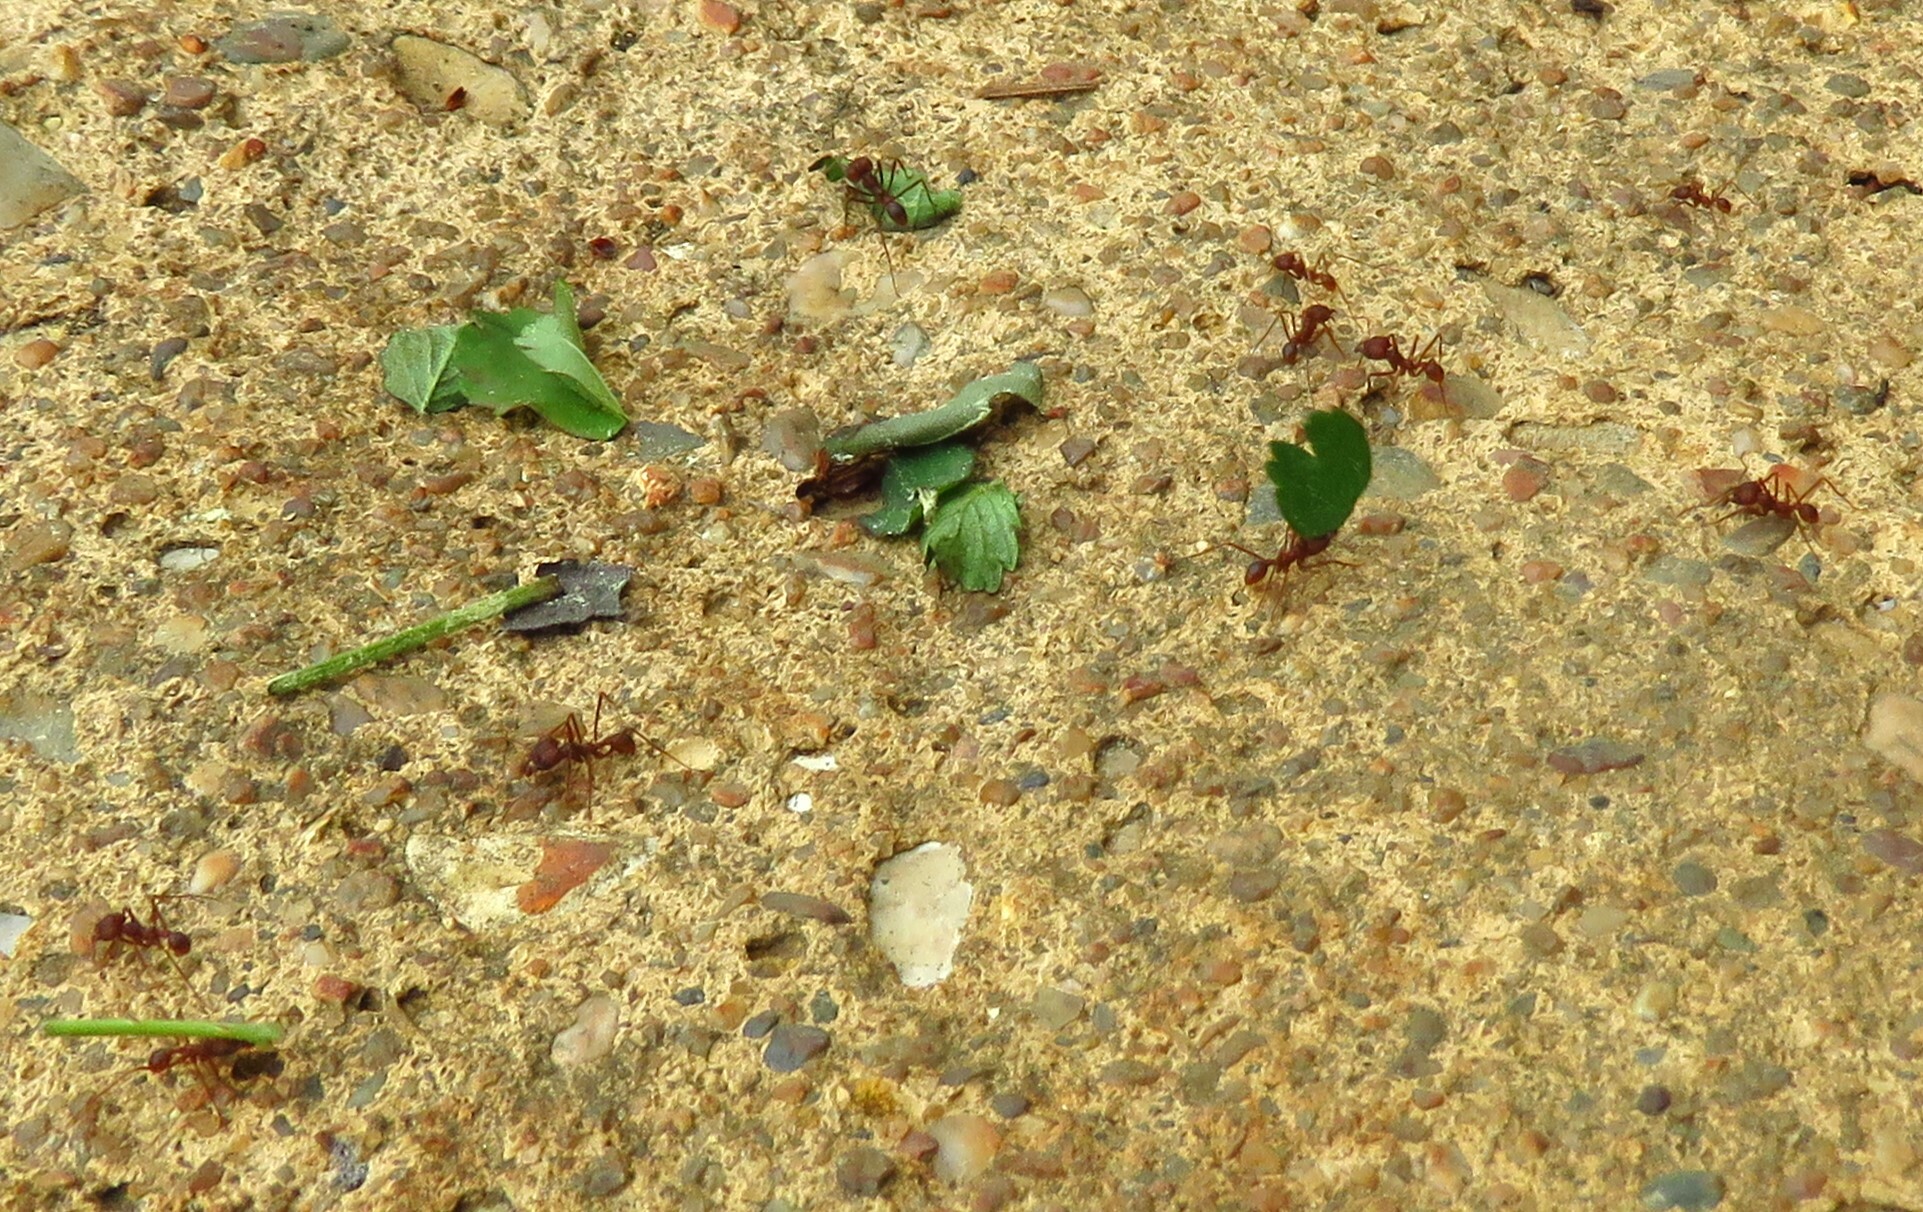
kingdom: Animalia
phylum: Arthropoda
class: Insecta
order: Hymenoptera
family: Formicidae
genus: Atta
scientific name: Atta texana
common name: Texas leafcutting ant
